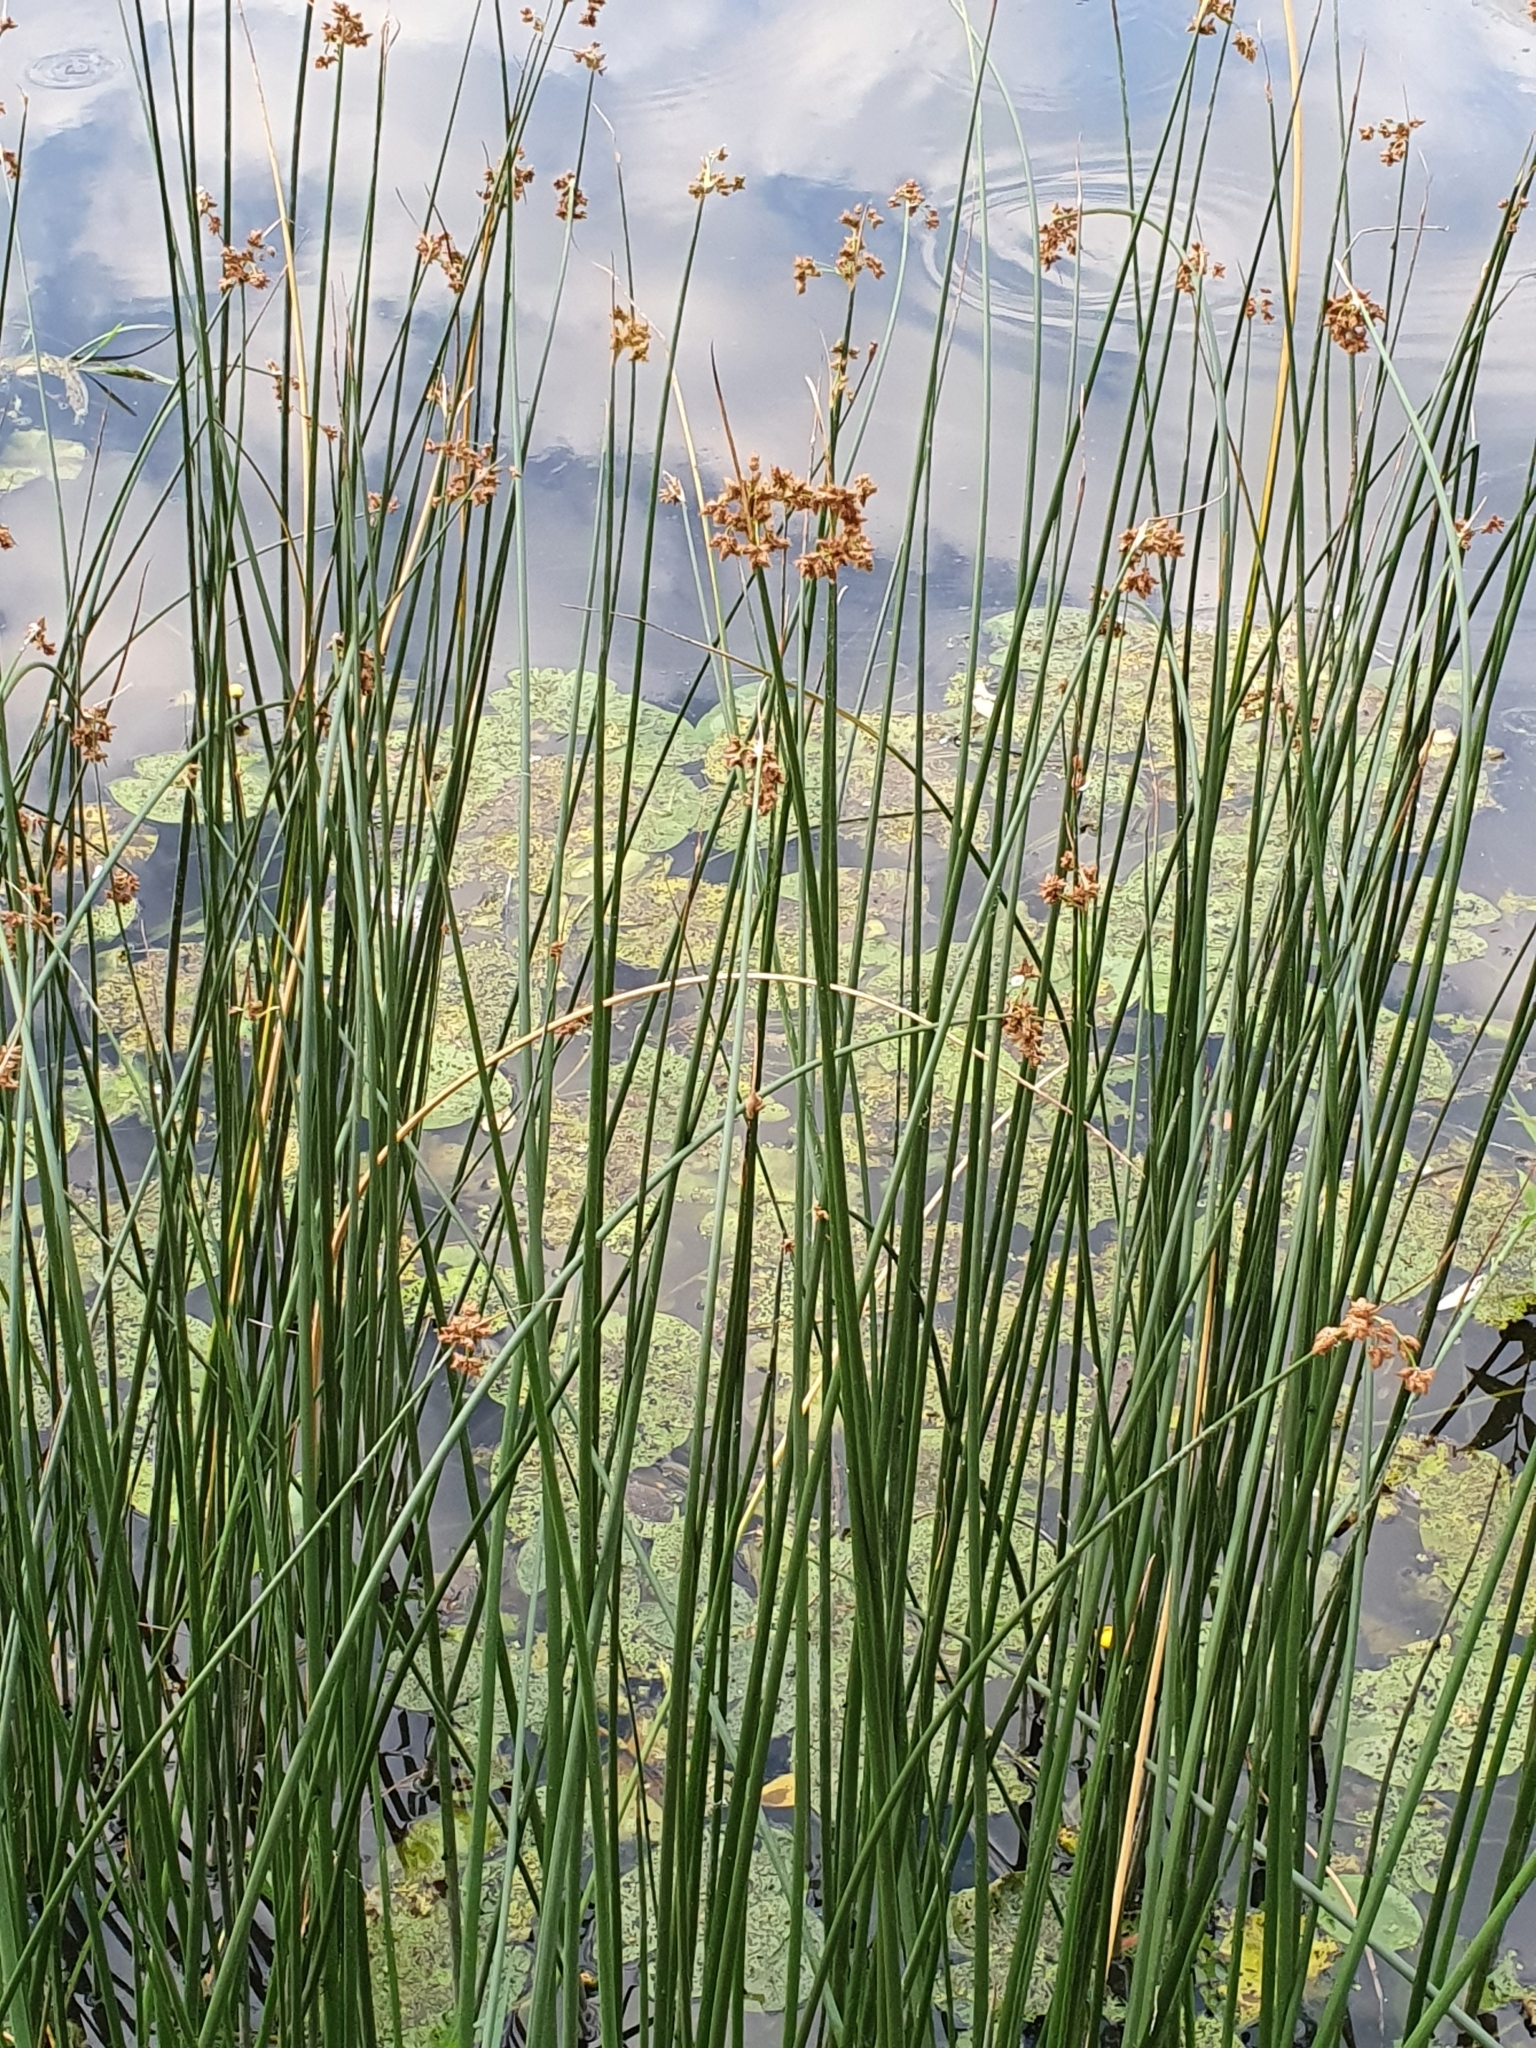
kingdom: Plantae
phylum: Tracheophyta
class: Liliopsida
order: Poales
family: Cyperaceae
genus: Schoenoplectus
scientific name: Schoenoplectus lacustris
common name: Common club-rush
